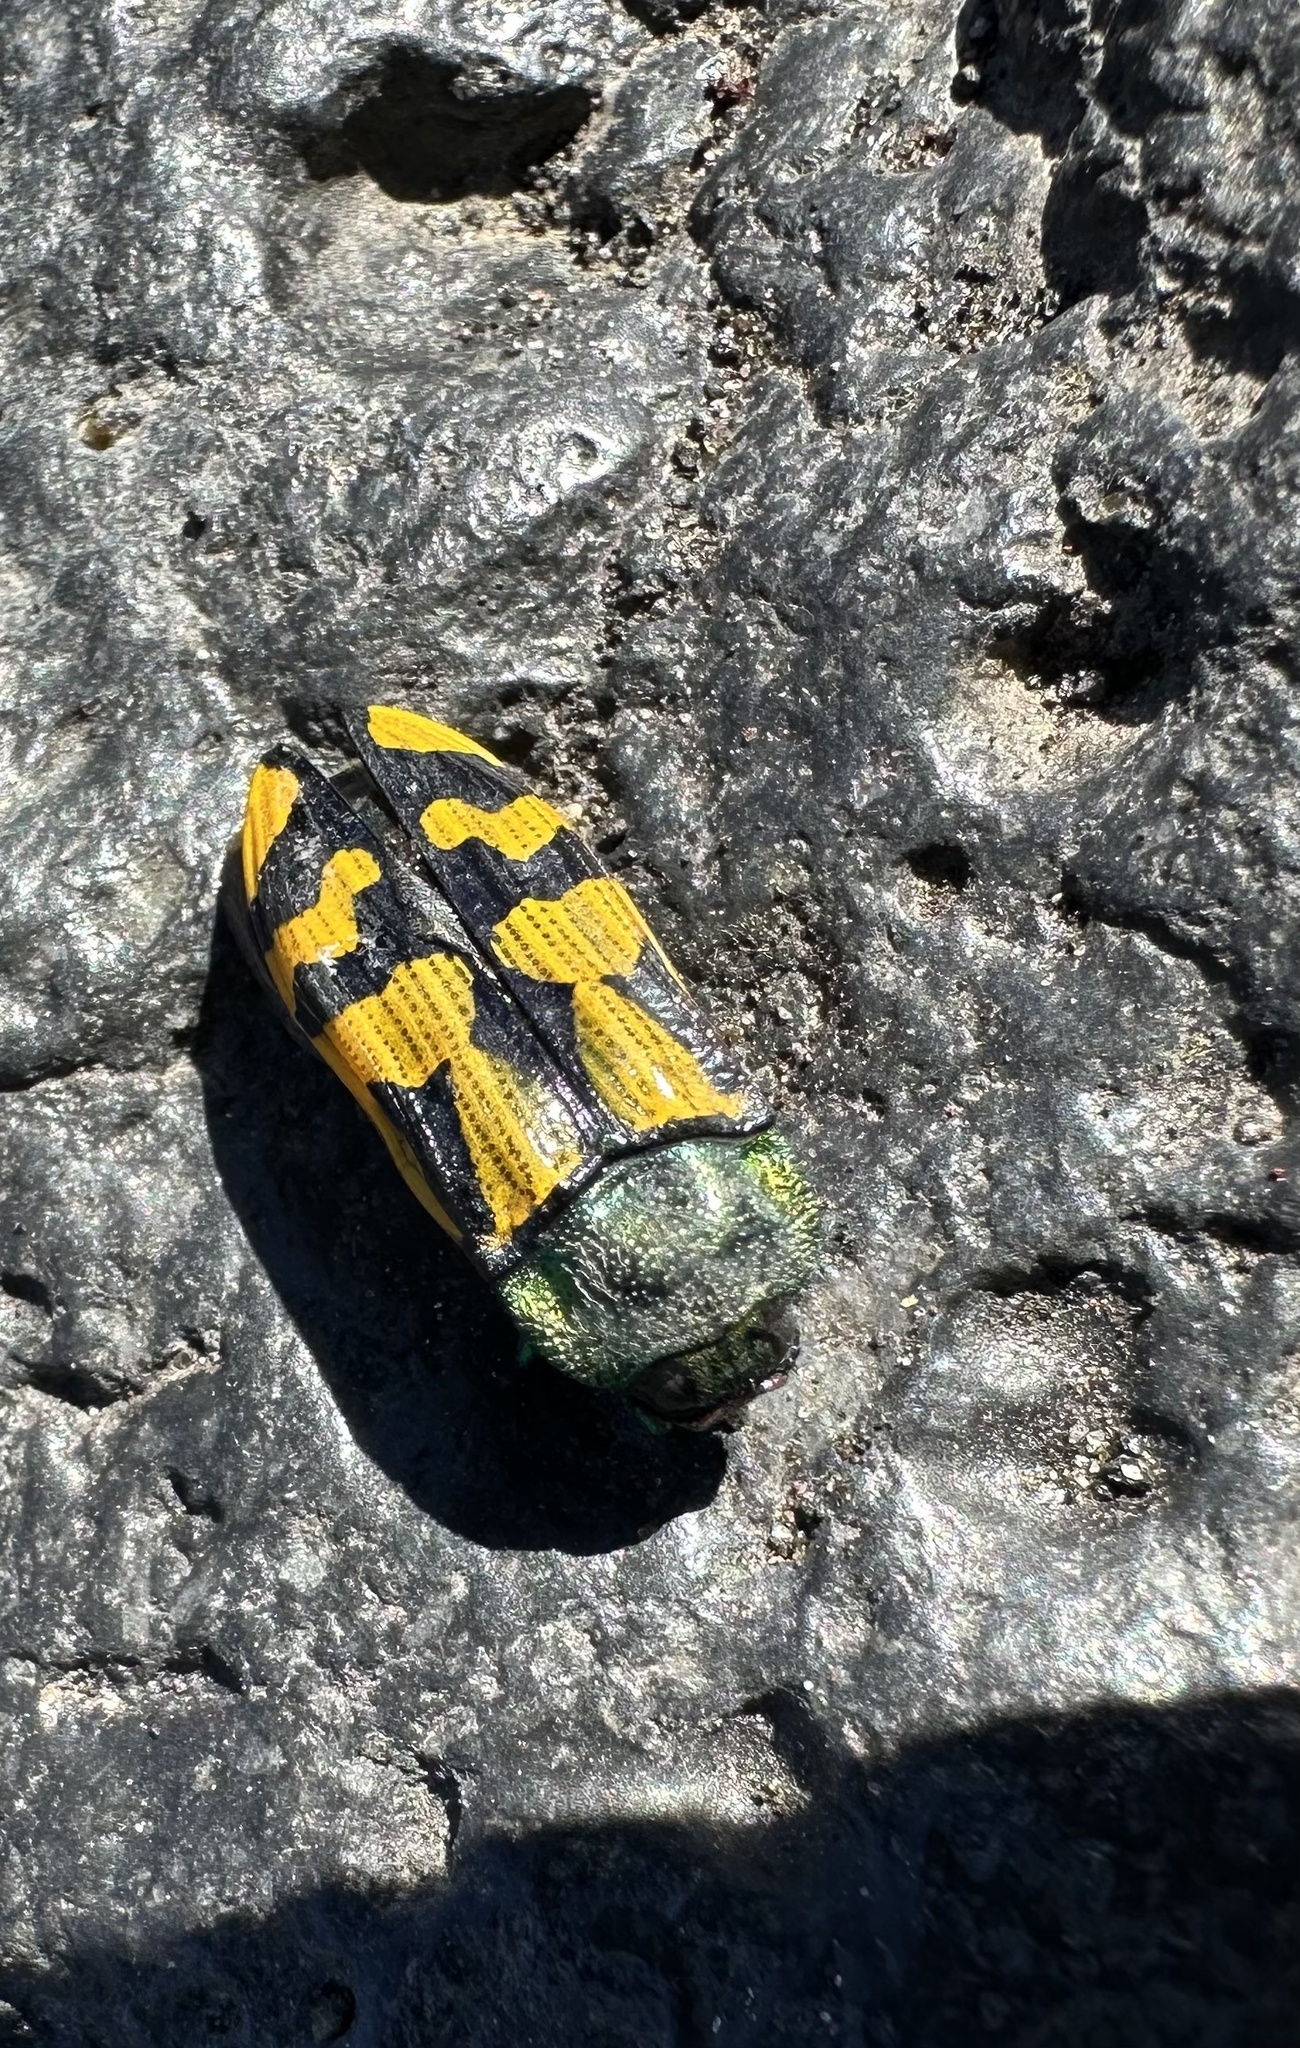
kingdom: Animalia
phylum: Arthropoda
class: Insecta
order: Coleoptera
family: Buprestidae
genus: Conognatha
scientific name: Conognatha viridiventris
